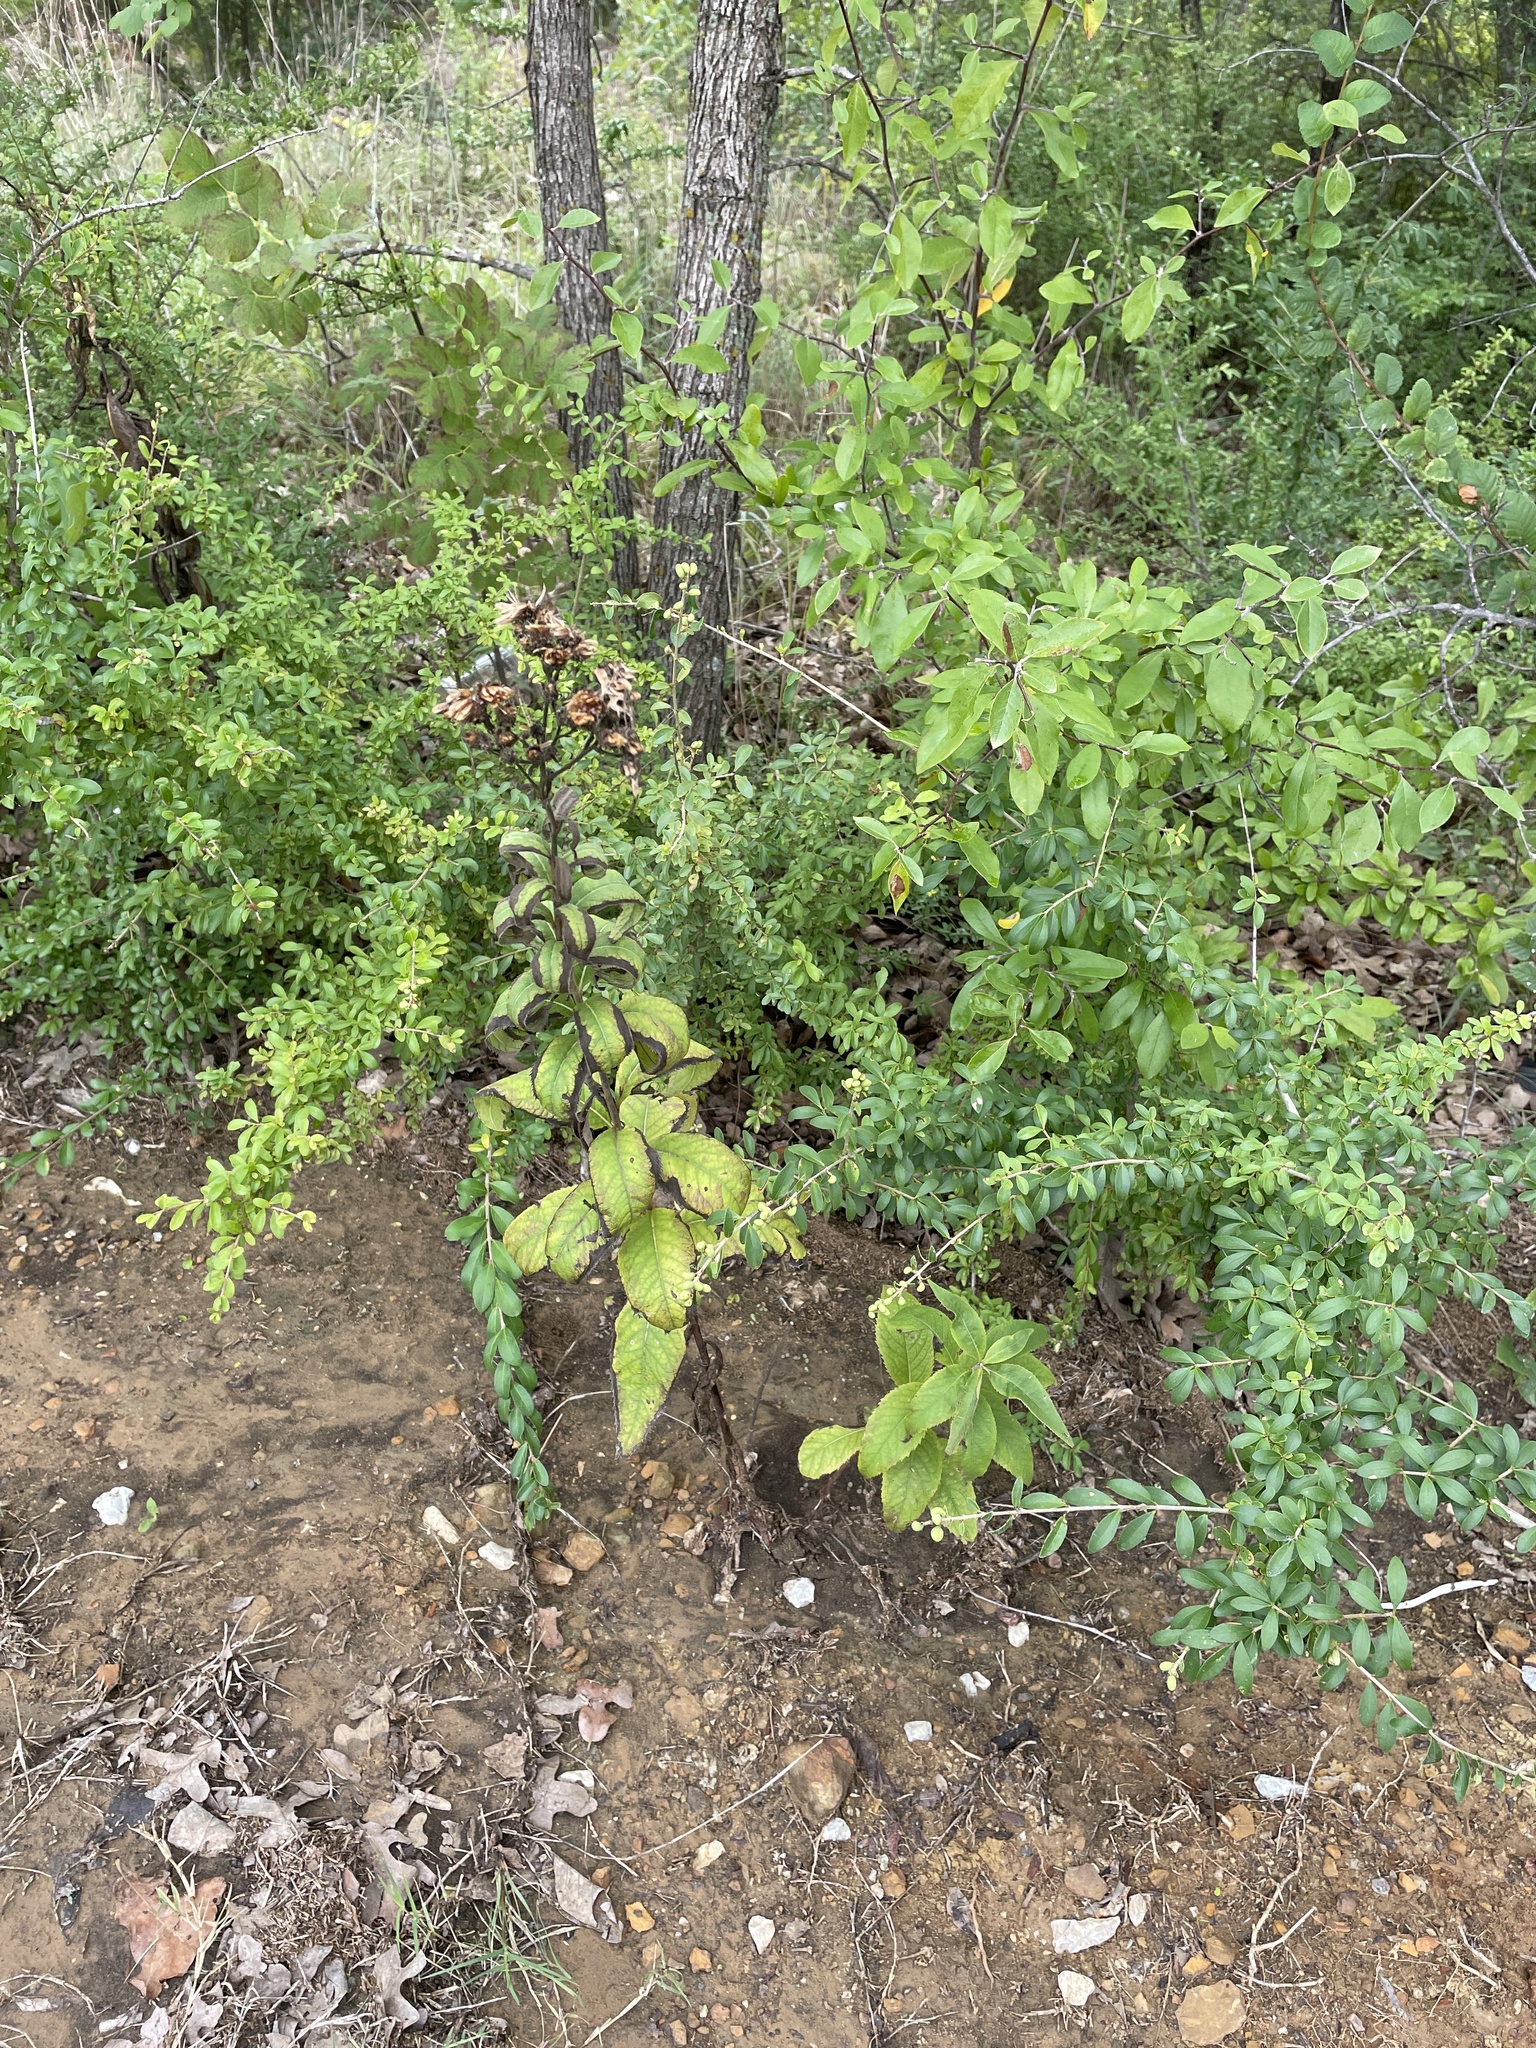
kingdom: Plantae
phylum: Tracheophyta
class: Magnoliopsida
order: Asterales
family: Asteraceae
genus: Vernonia
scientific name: Vernonia missurica
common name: Missouri ironweed
